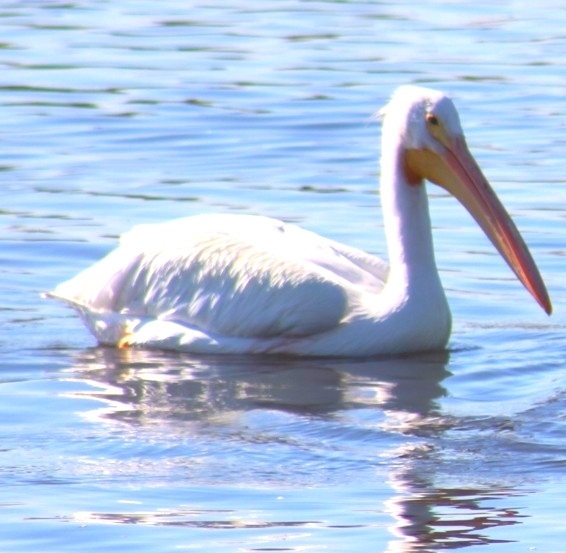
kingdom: Animalia
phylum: Chordata
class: Aves
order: Pelecaniformes
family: Pelecanidae
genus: Pelecanus
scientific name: Pelecanus erythrorhynchos
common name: American white pelican
